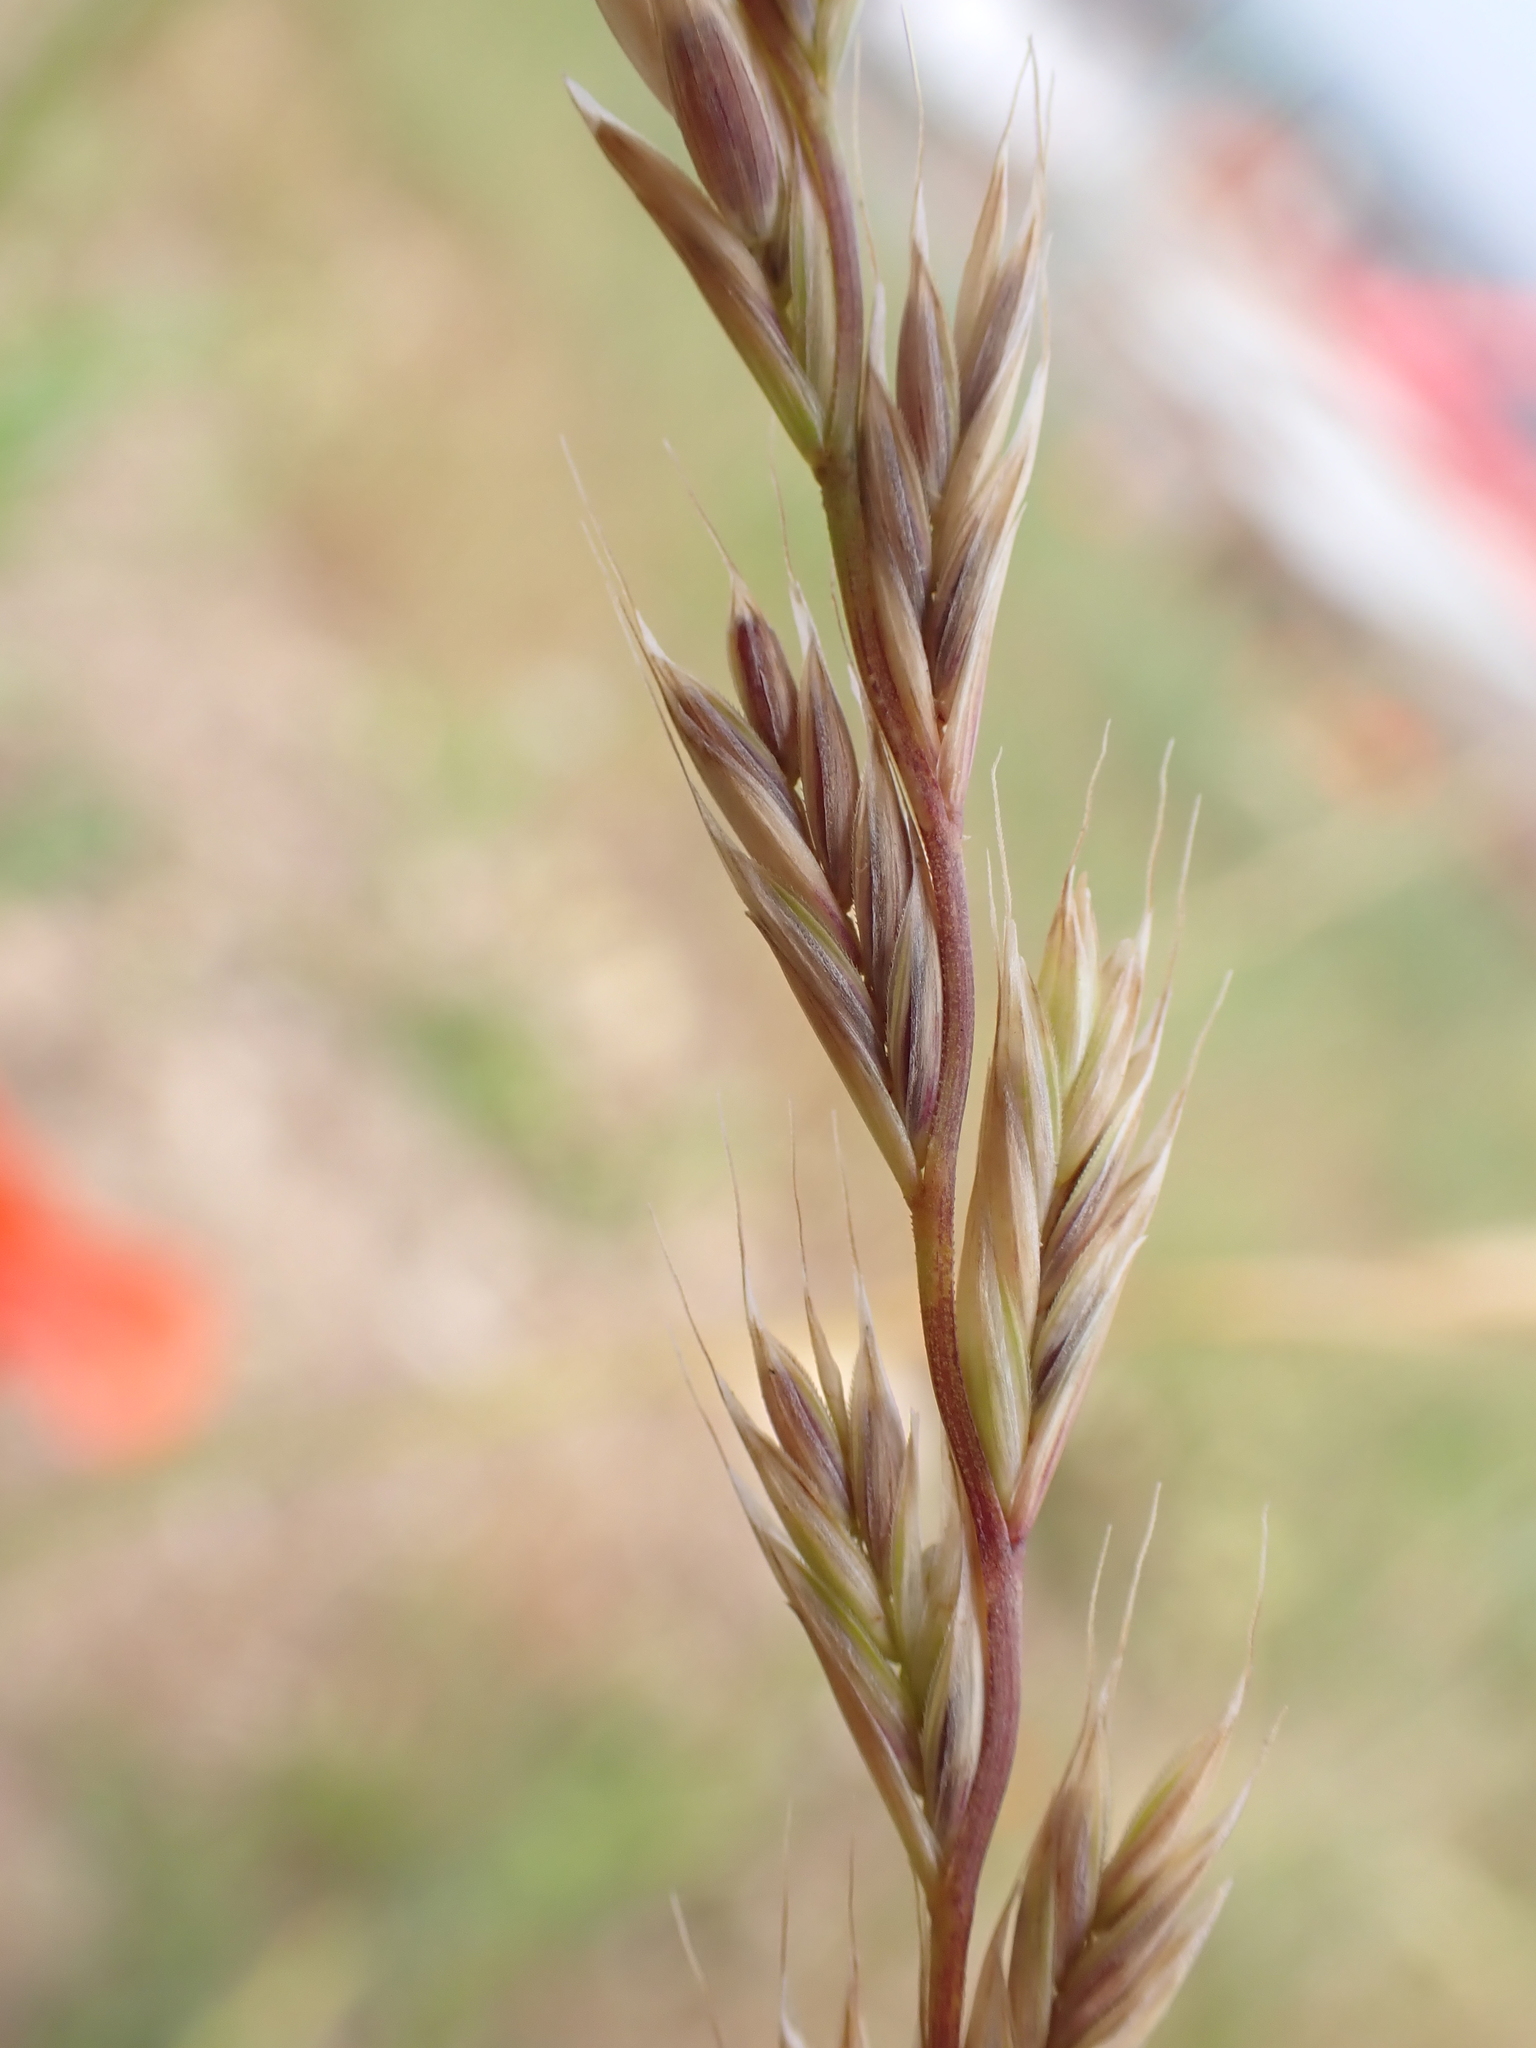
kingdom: Plantae
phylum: Tracheophyta
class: Liliopsida
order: Poales
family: Poaceae
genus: Lolium
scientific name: Lolium multiflorum
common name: Annual ryegrass
